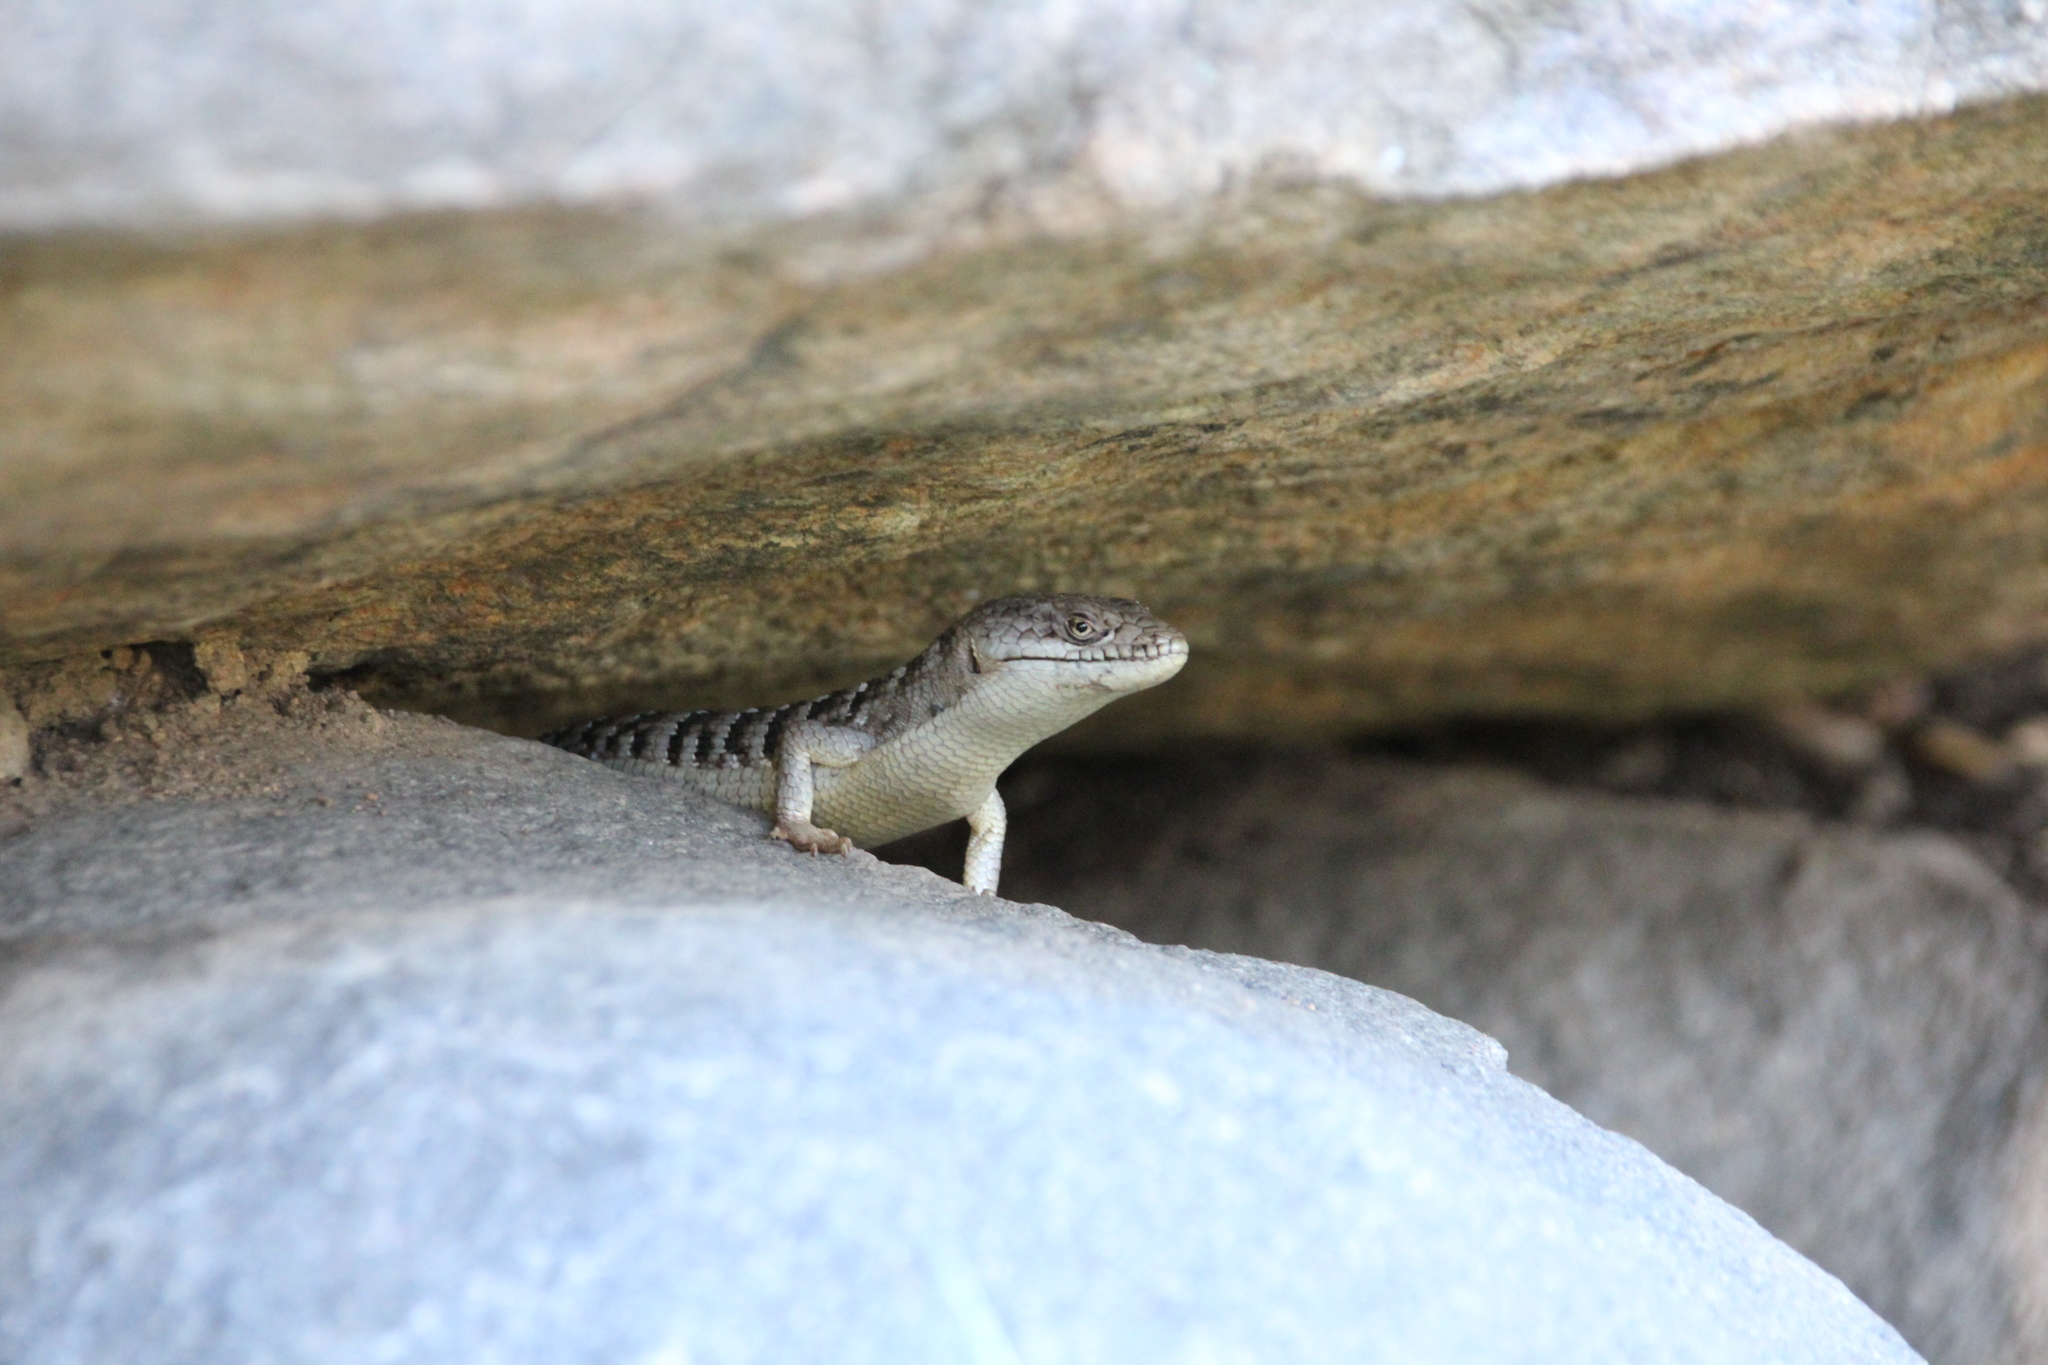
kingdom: Animalia
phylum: Chordata
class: Squamata
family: Anguidae
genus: Elgaria
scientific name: Elgaria multicarinata
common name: Southern alligator lizard
